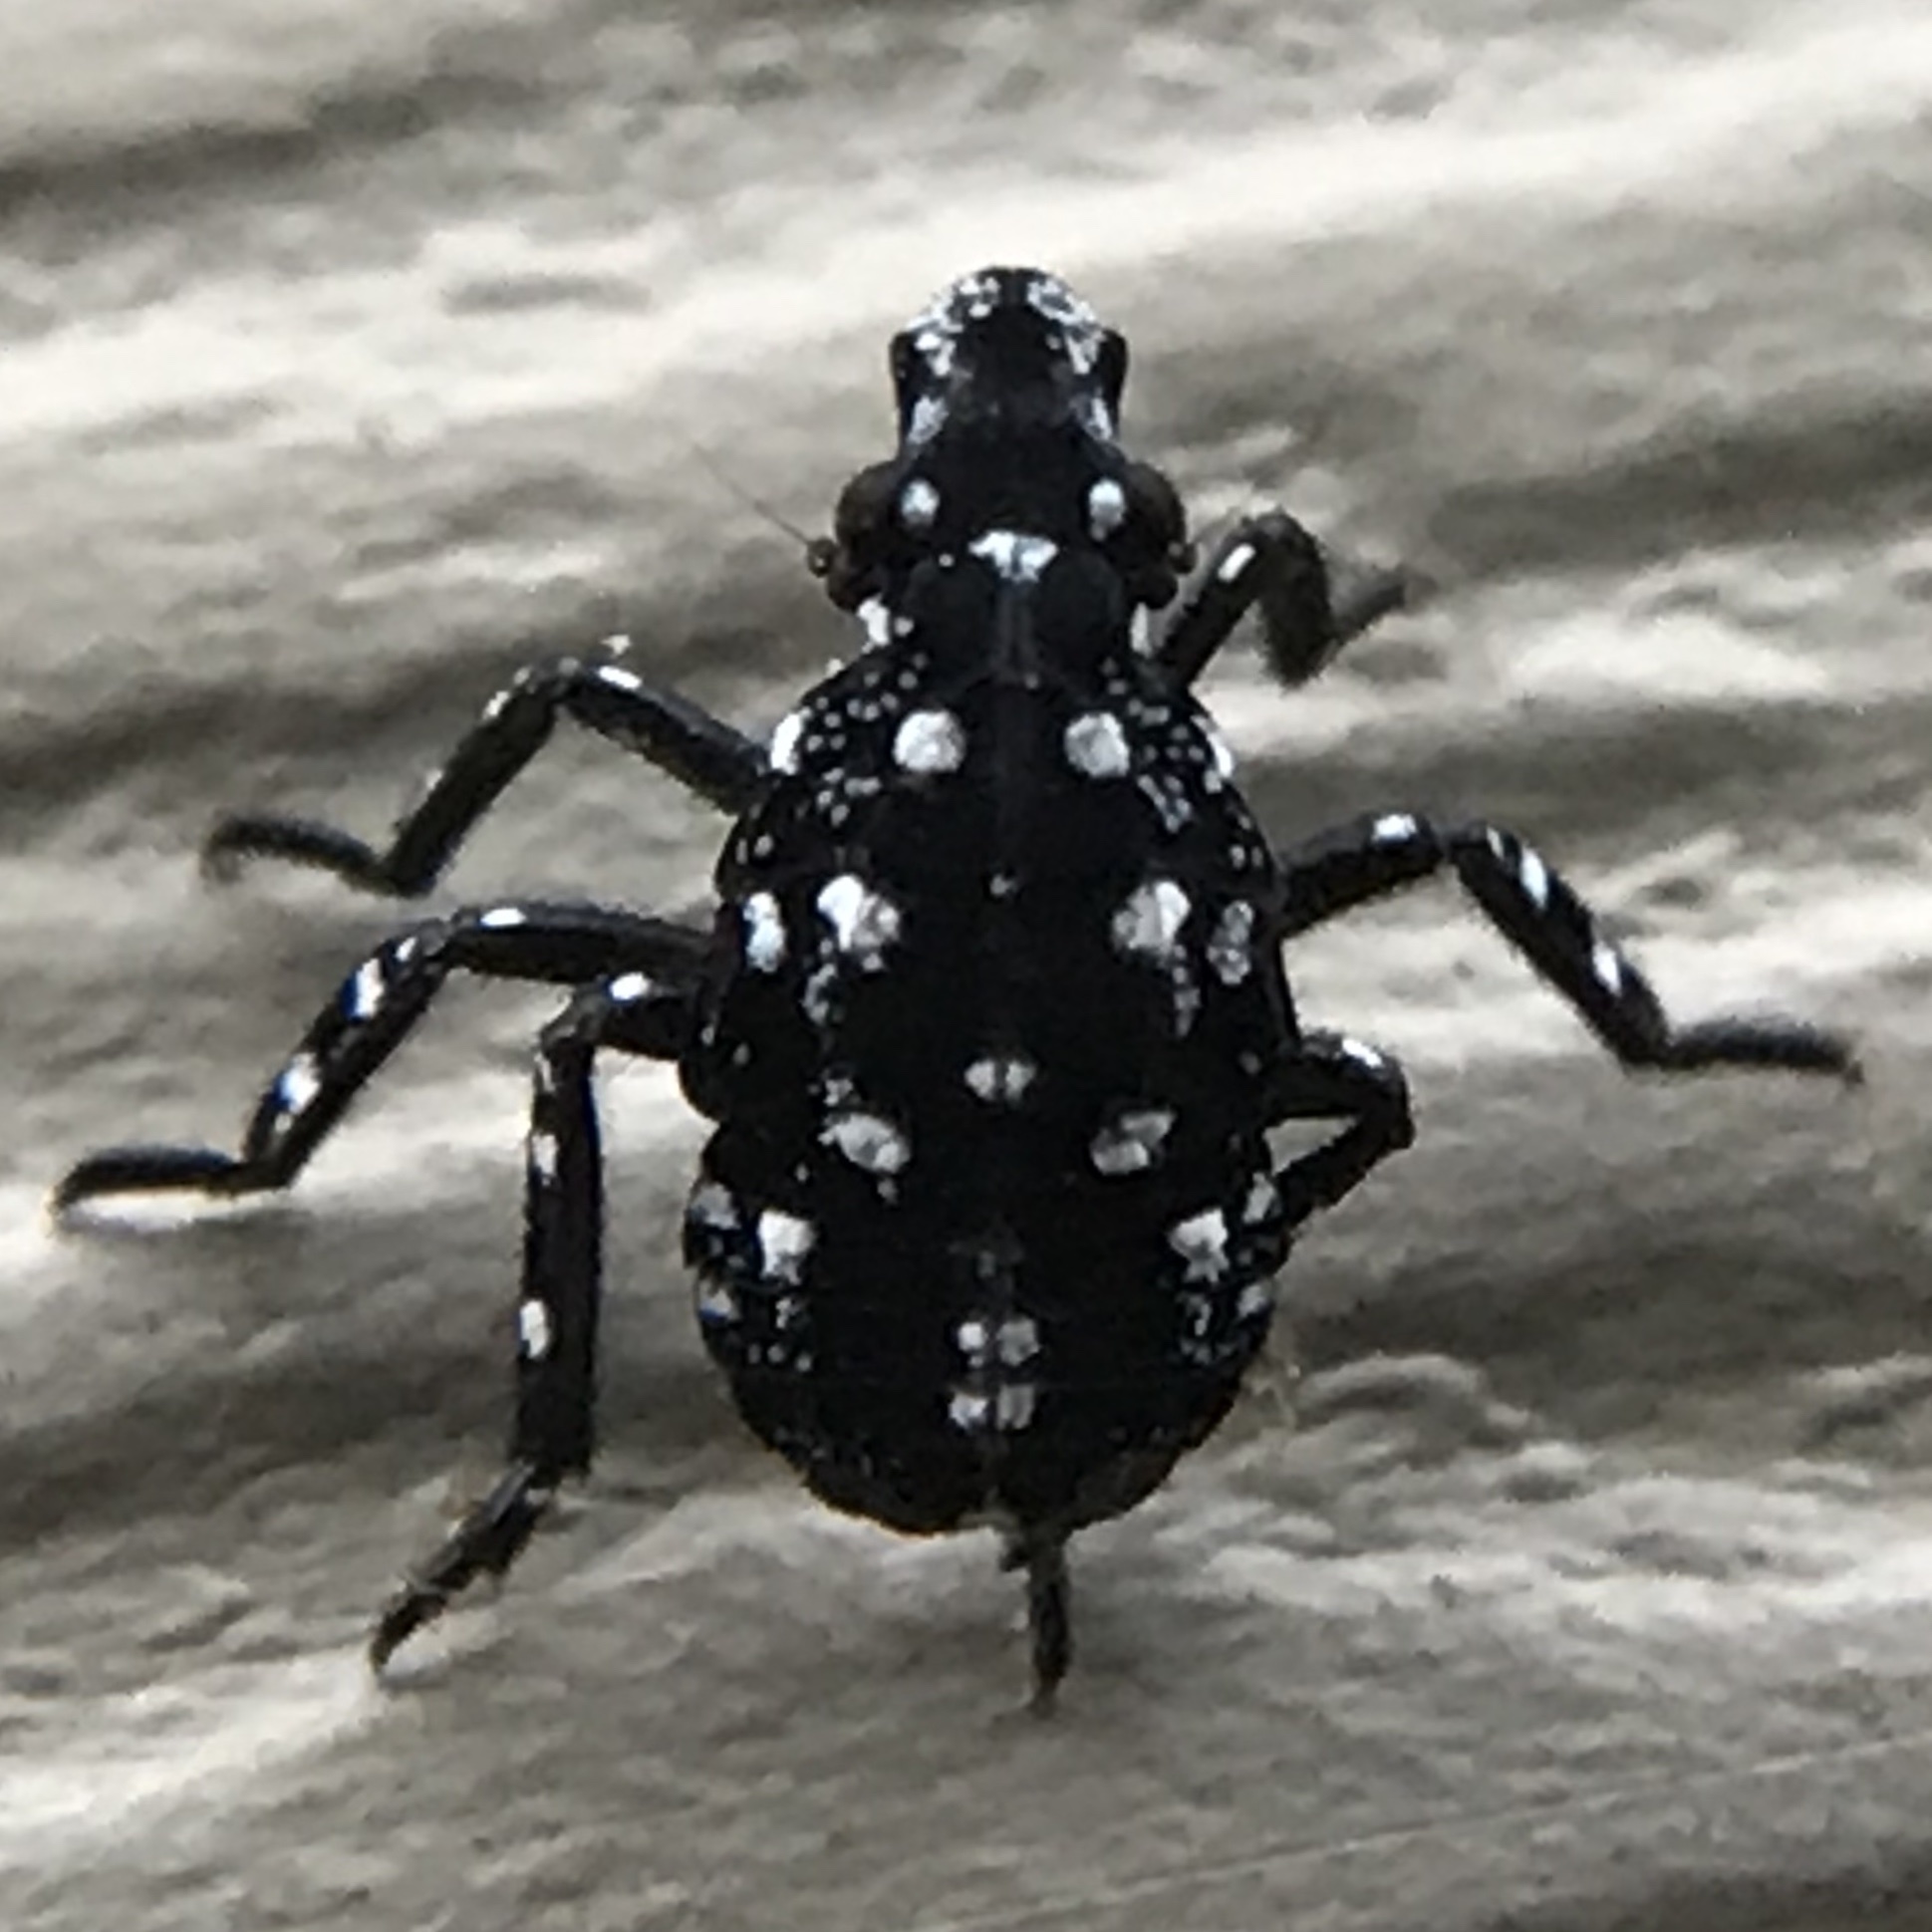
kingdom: Animalia
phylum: Arthropoda
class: Insecta
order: Hemiptera
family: Fulgoridae
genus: Lycorma
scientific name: Lycorma delicatula
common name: Spotted lanternfly
